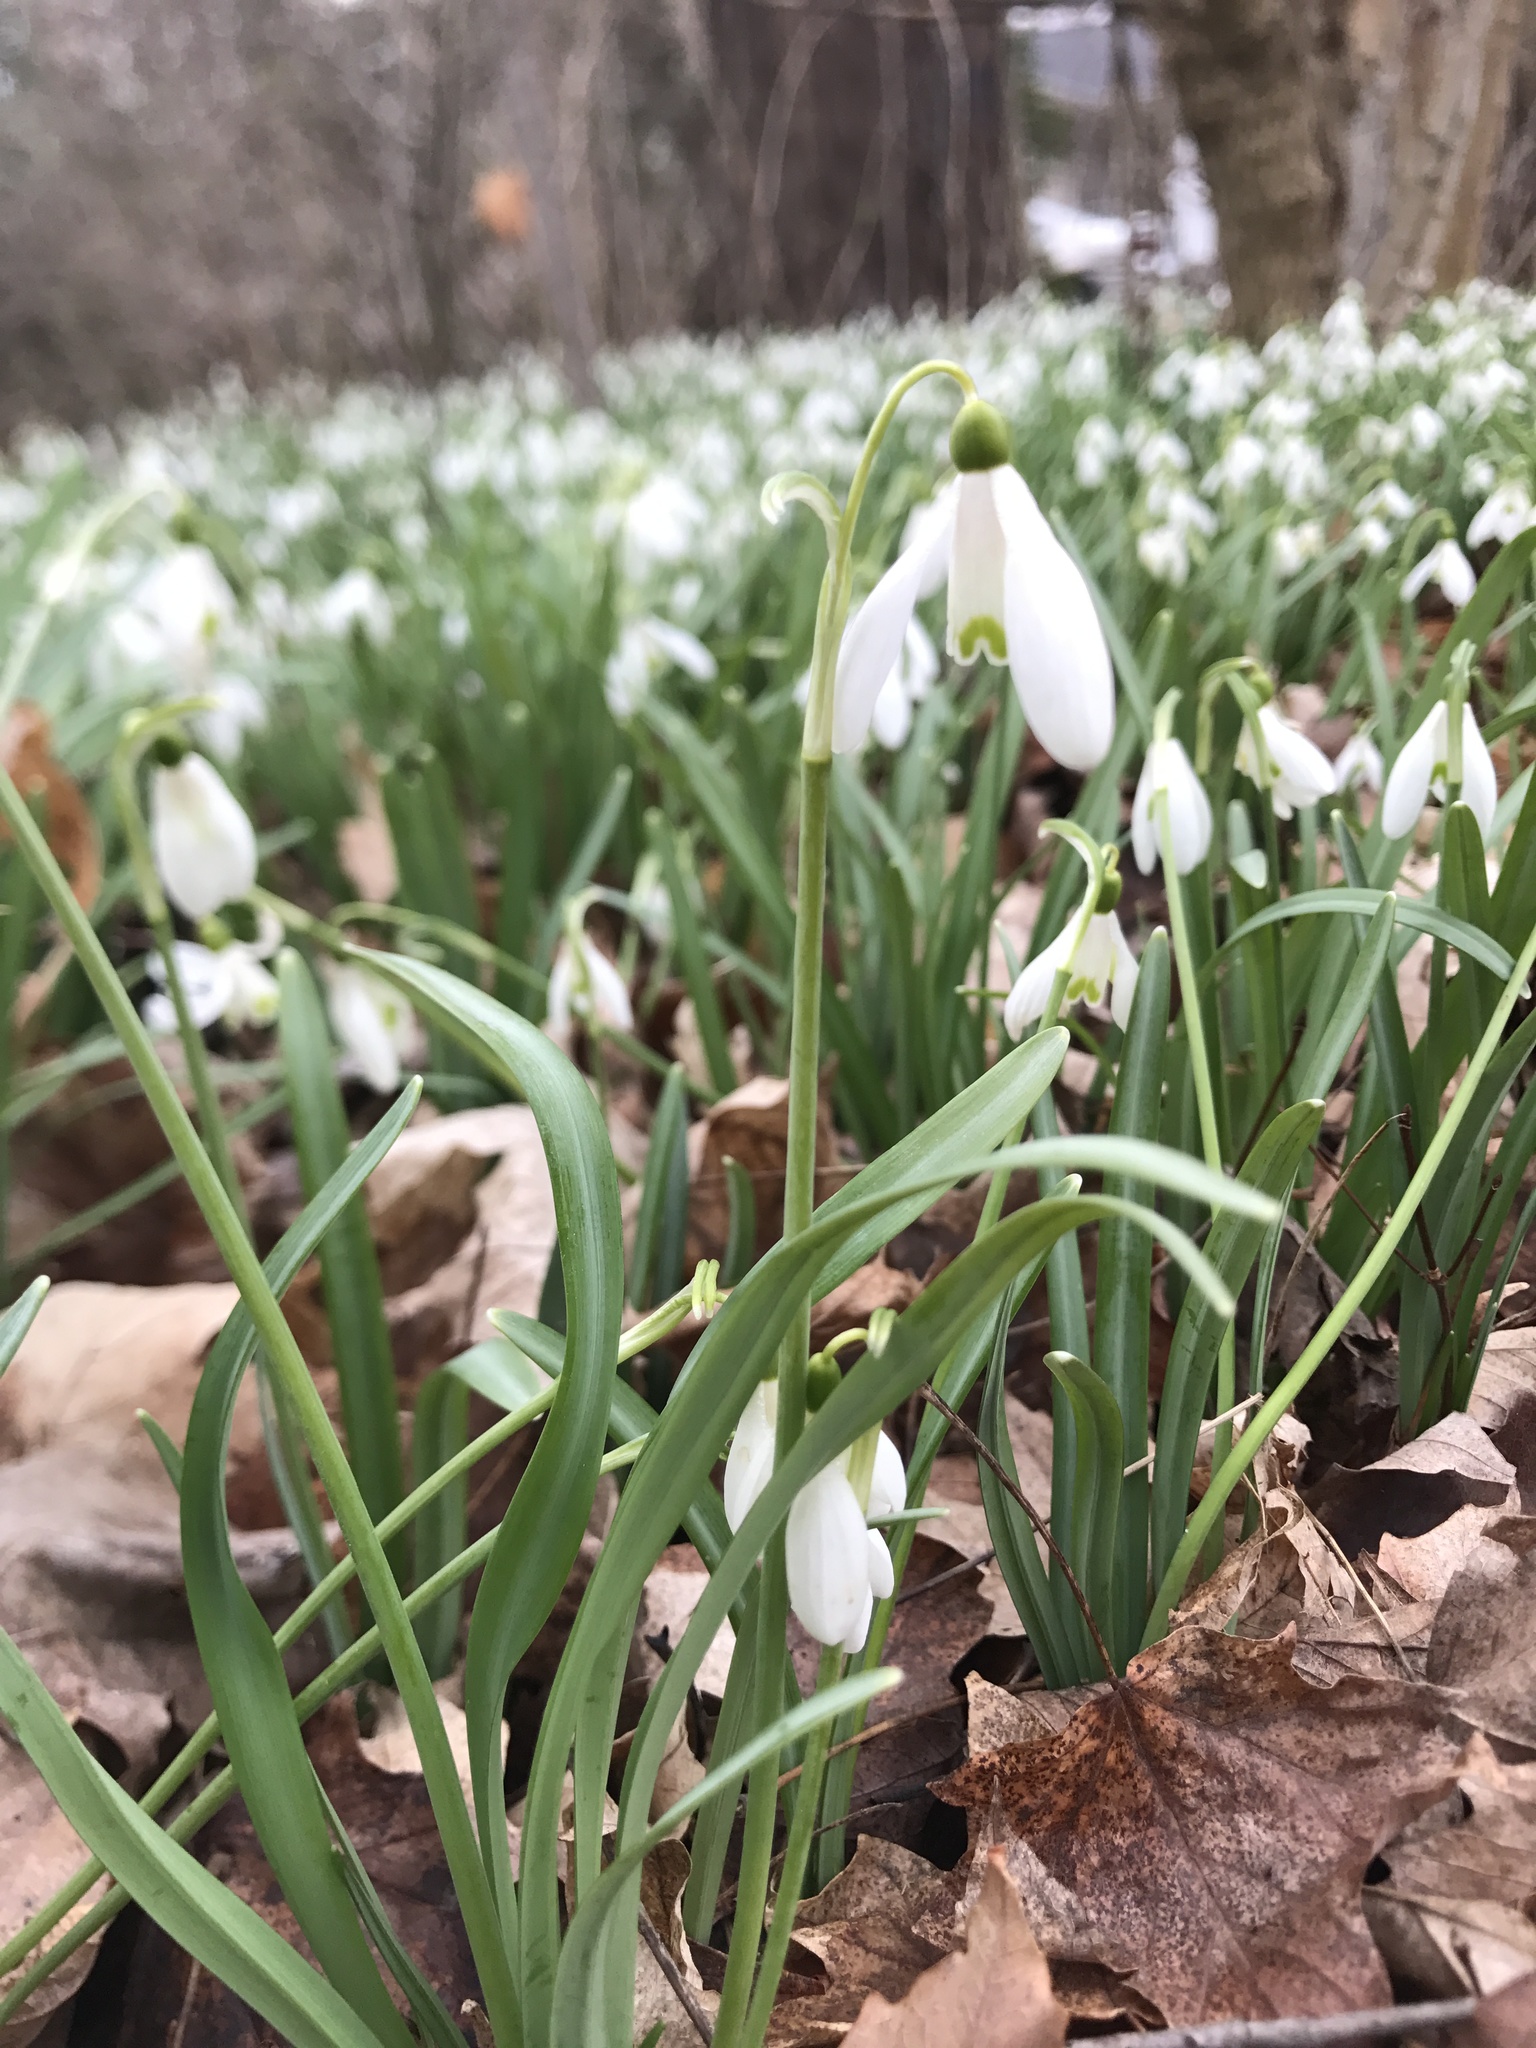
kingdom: Plantae
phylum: Tracheophyta
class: Liliopsida
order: Asparagales
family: Amaryllidaceae
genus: Galanthus
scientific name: Galanthus nivalis
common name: Snowdrop
